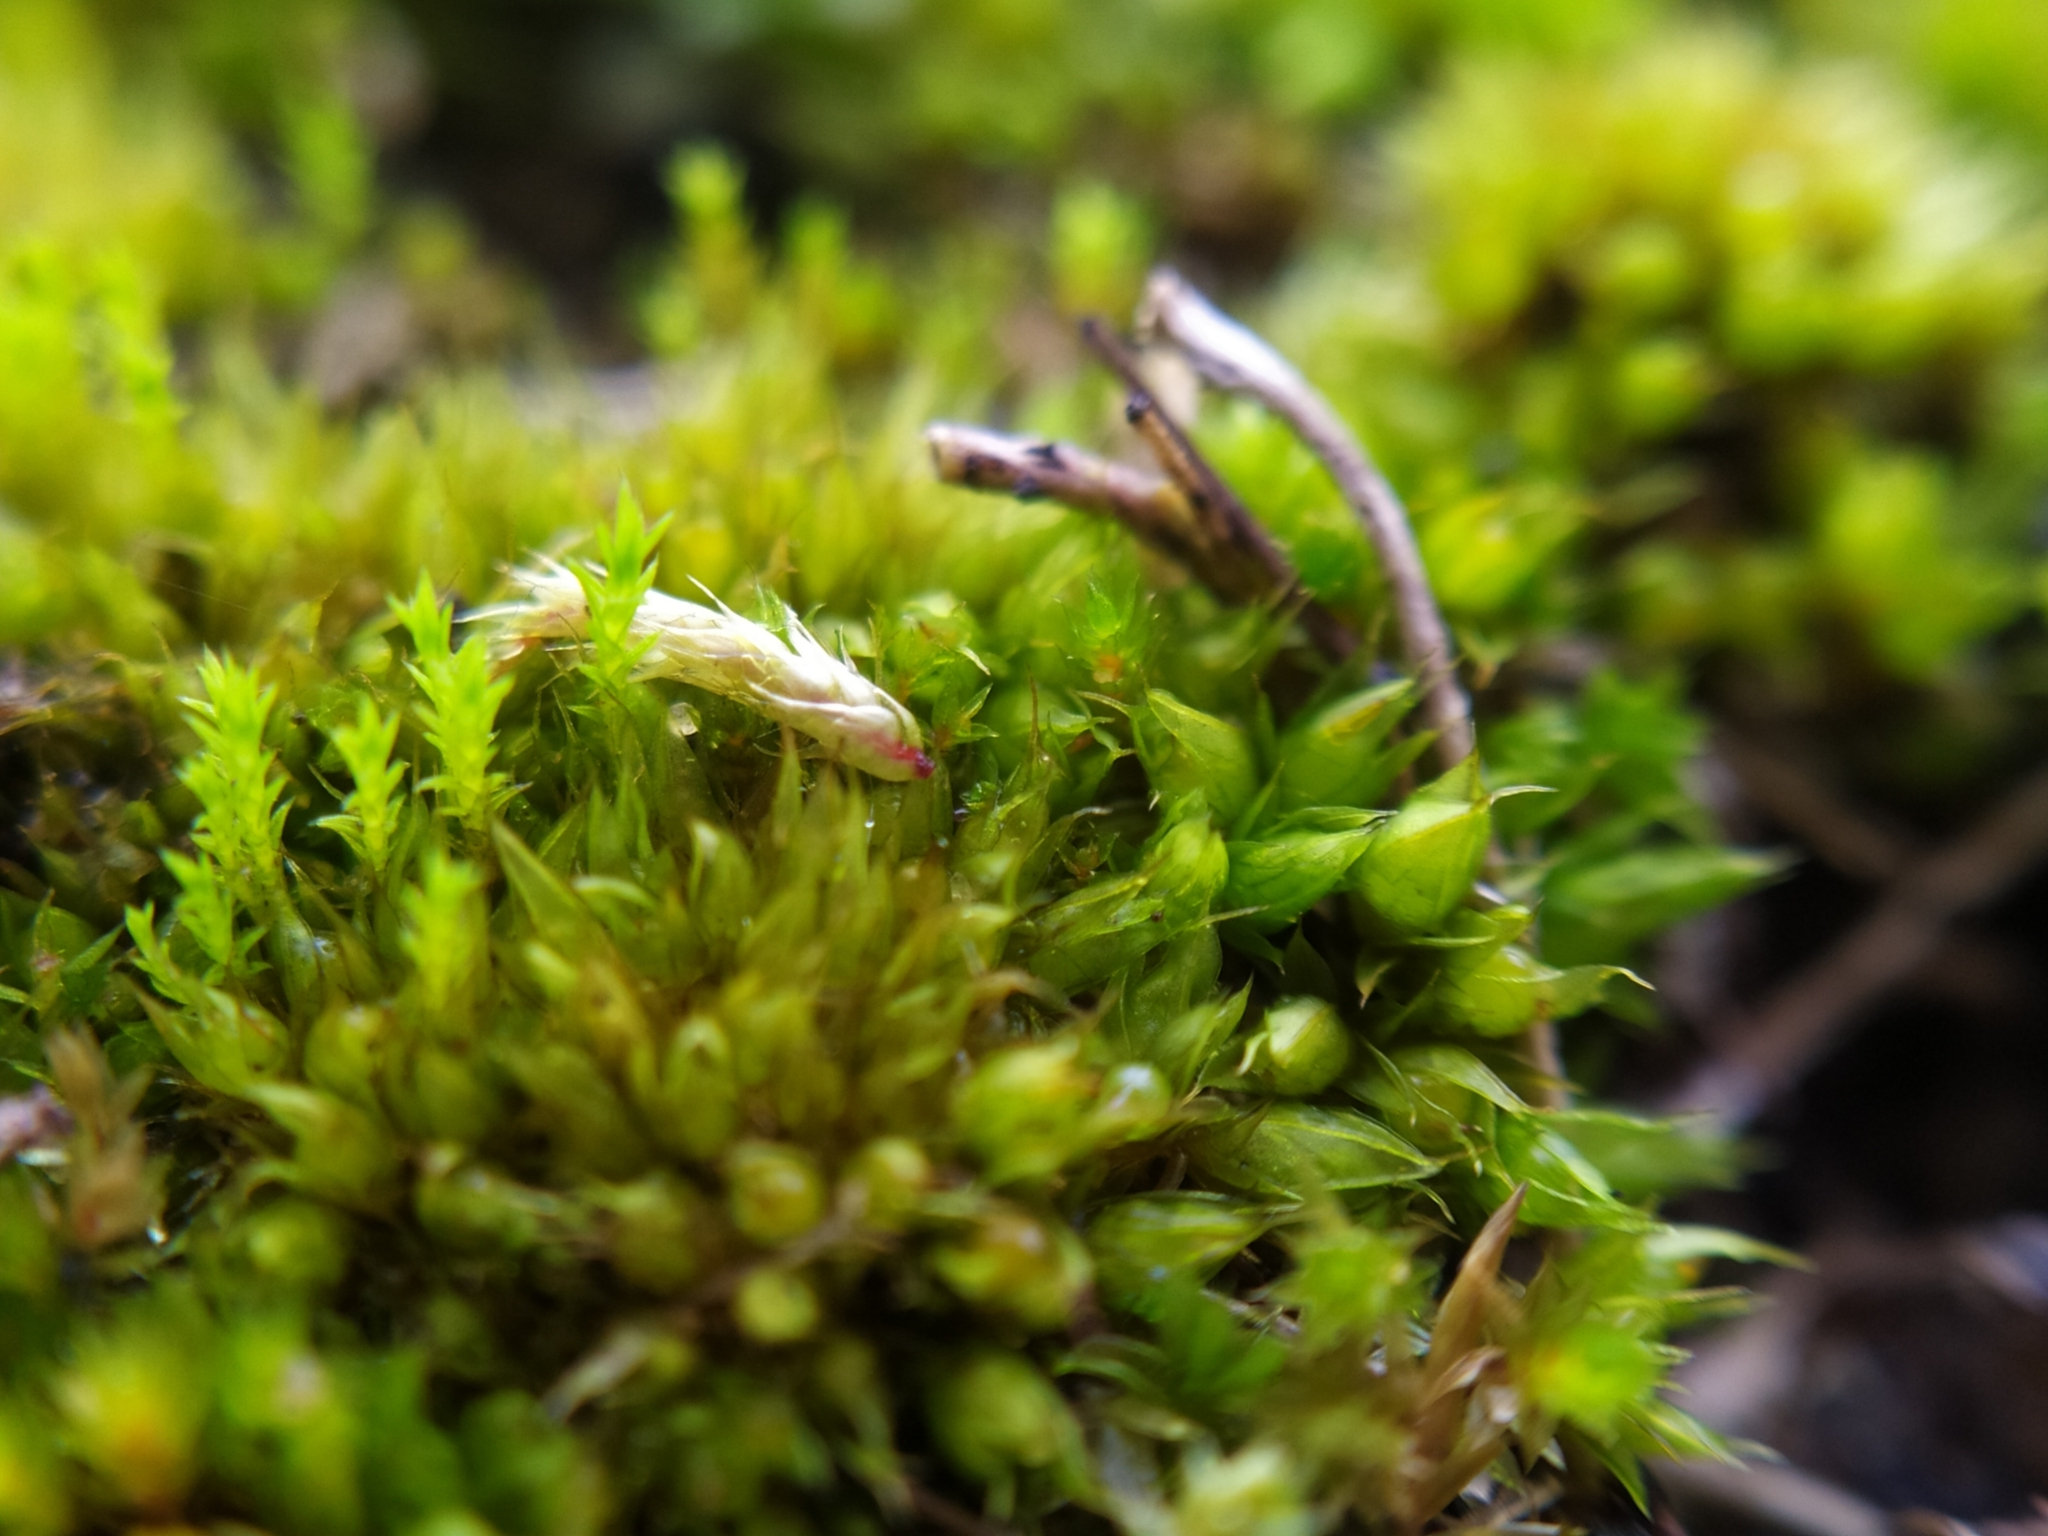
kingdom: Plantae
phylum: Bryophyta
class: Bryopsida
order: Pottiales
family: Pottiaceae
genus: Tortula
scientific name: Tortula acaulon
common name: Cuspidate earth moss
